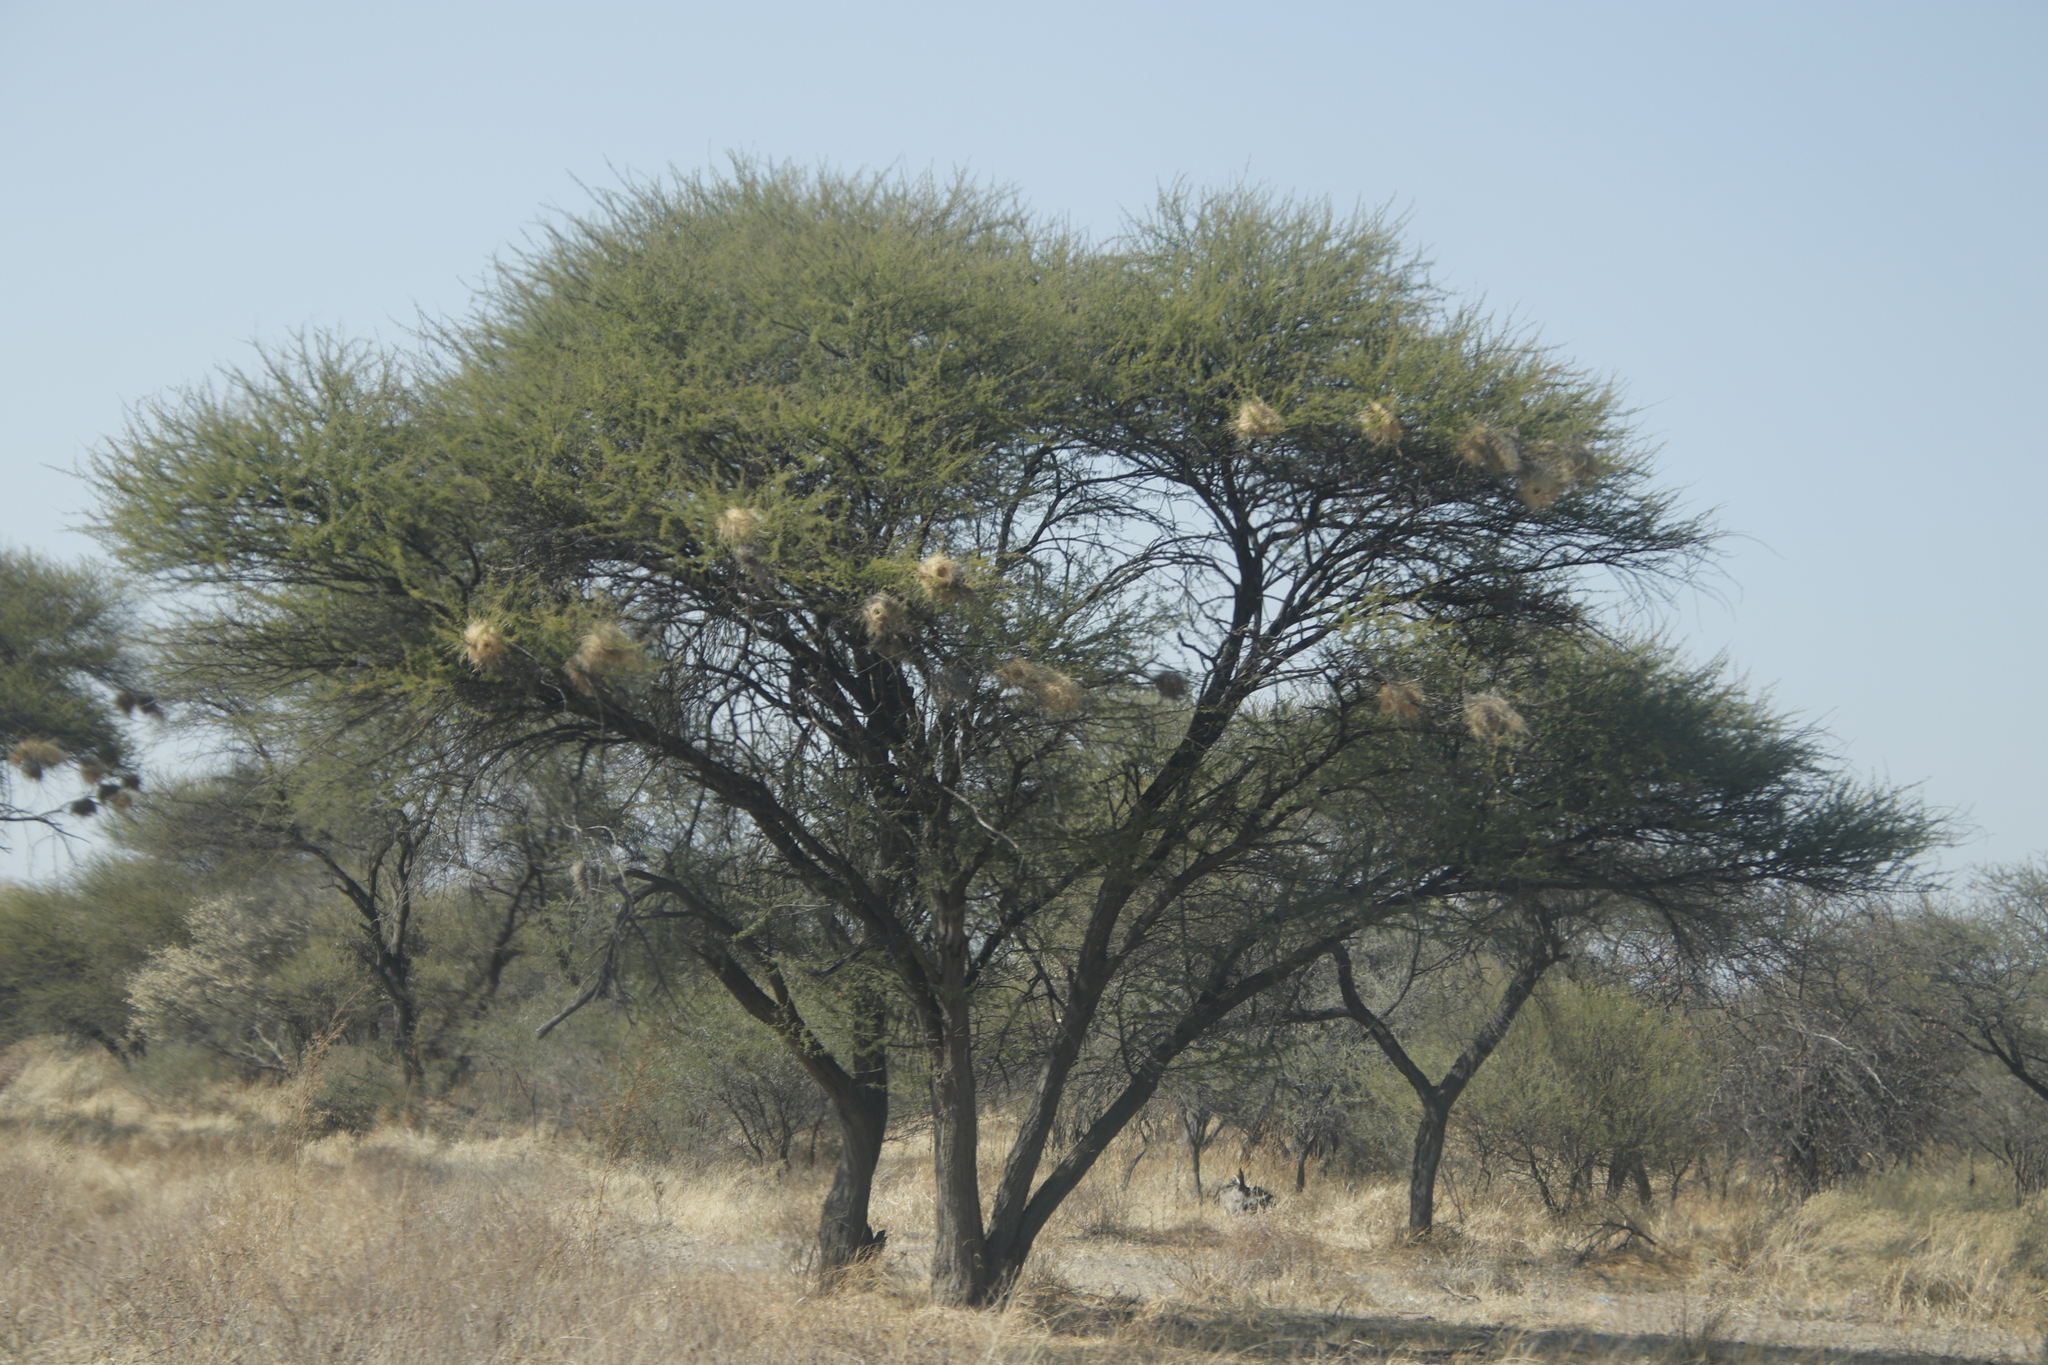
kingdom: Animalia
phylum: Chordata
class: Aves
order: Passeriformes
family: Passeridae
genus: Plocepasser
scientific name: Plocepasser mahali
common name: White-browed sparrow-weaver
